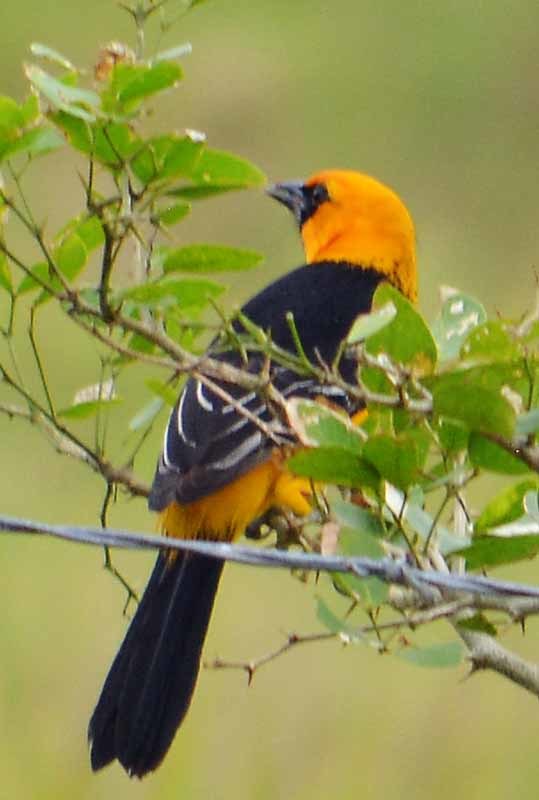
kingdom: Animalia
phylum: Chordata
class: Aves
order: Passeriformes
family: Icteridae
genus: Icterus
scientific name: Icterus gularis
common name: Altamira oriole
